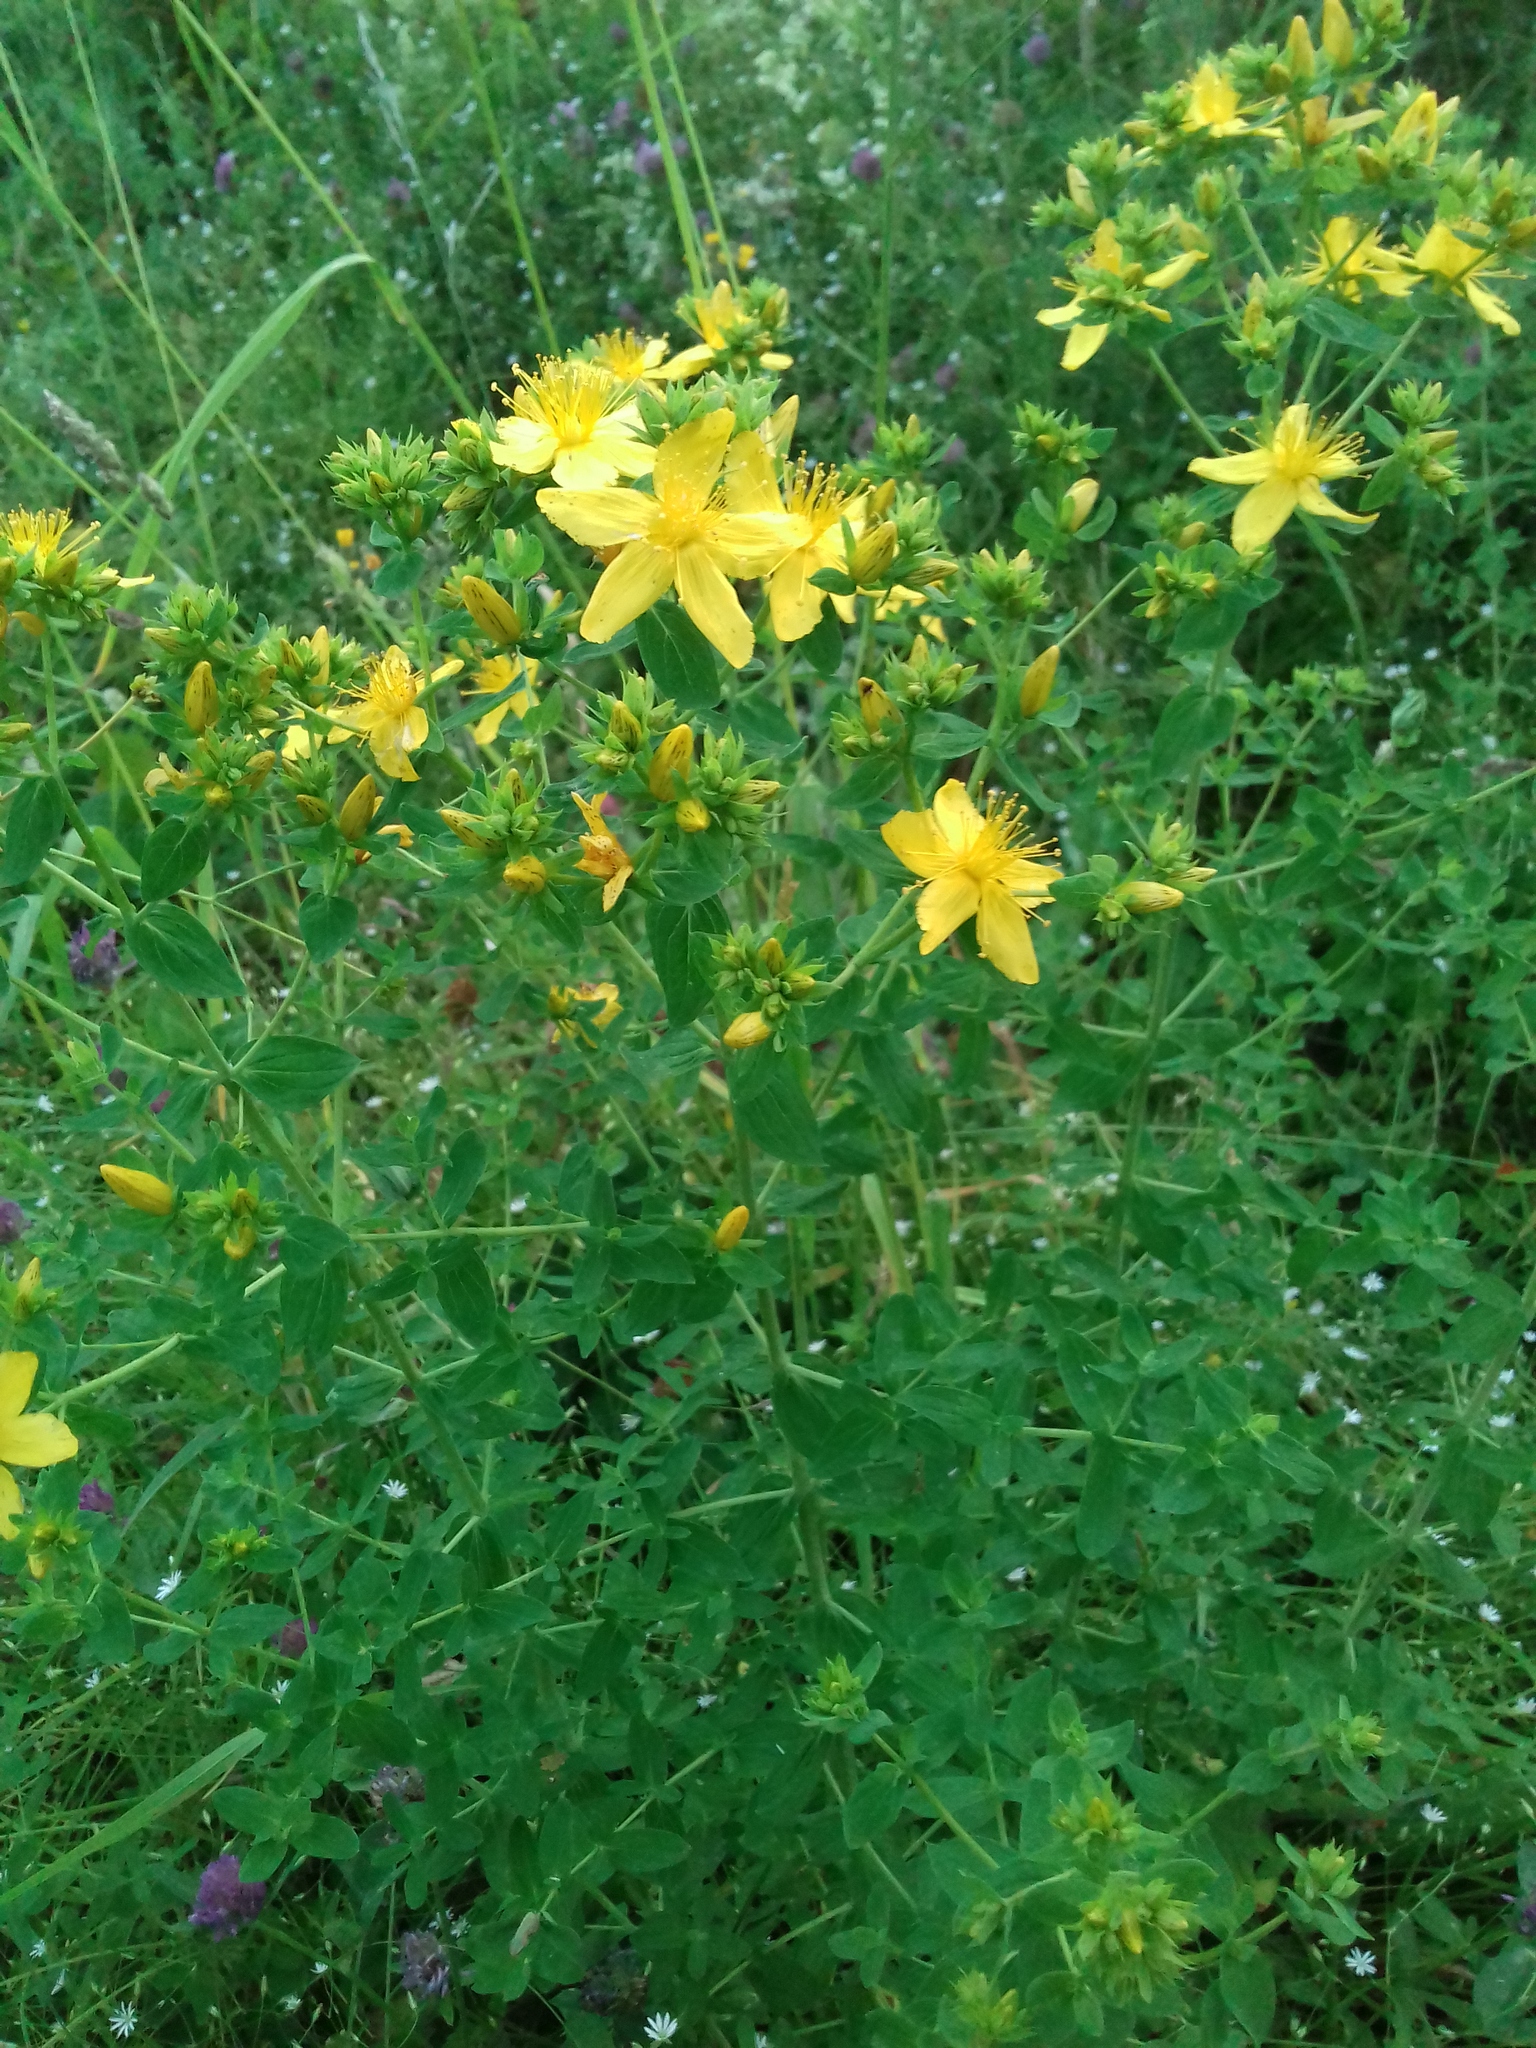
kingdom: Plantae
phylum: Tracheophyta
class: Magnoliopsida
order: Malpighiales
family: Hypericaceae
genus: Hypericum
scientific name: Hypericum perforatum
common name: Common st. johnswort
